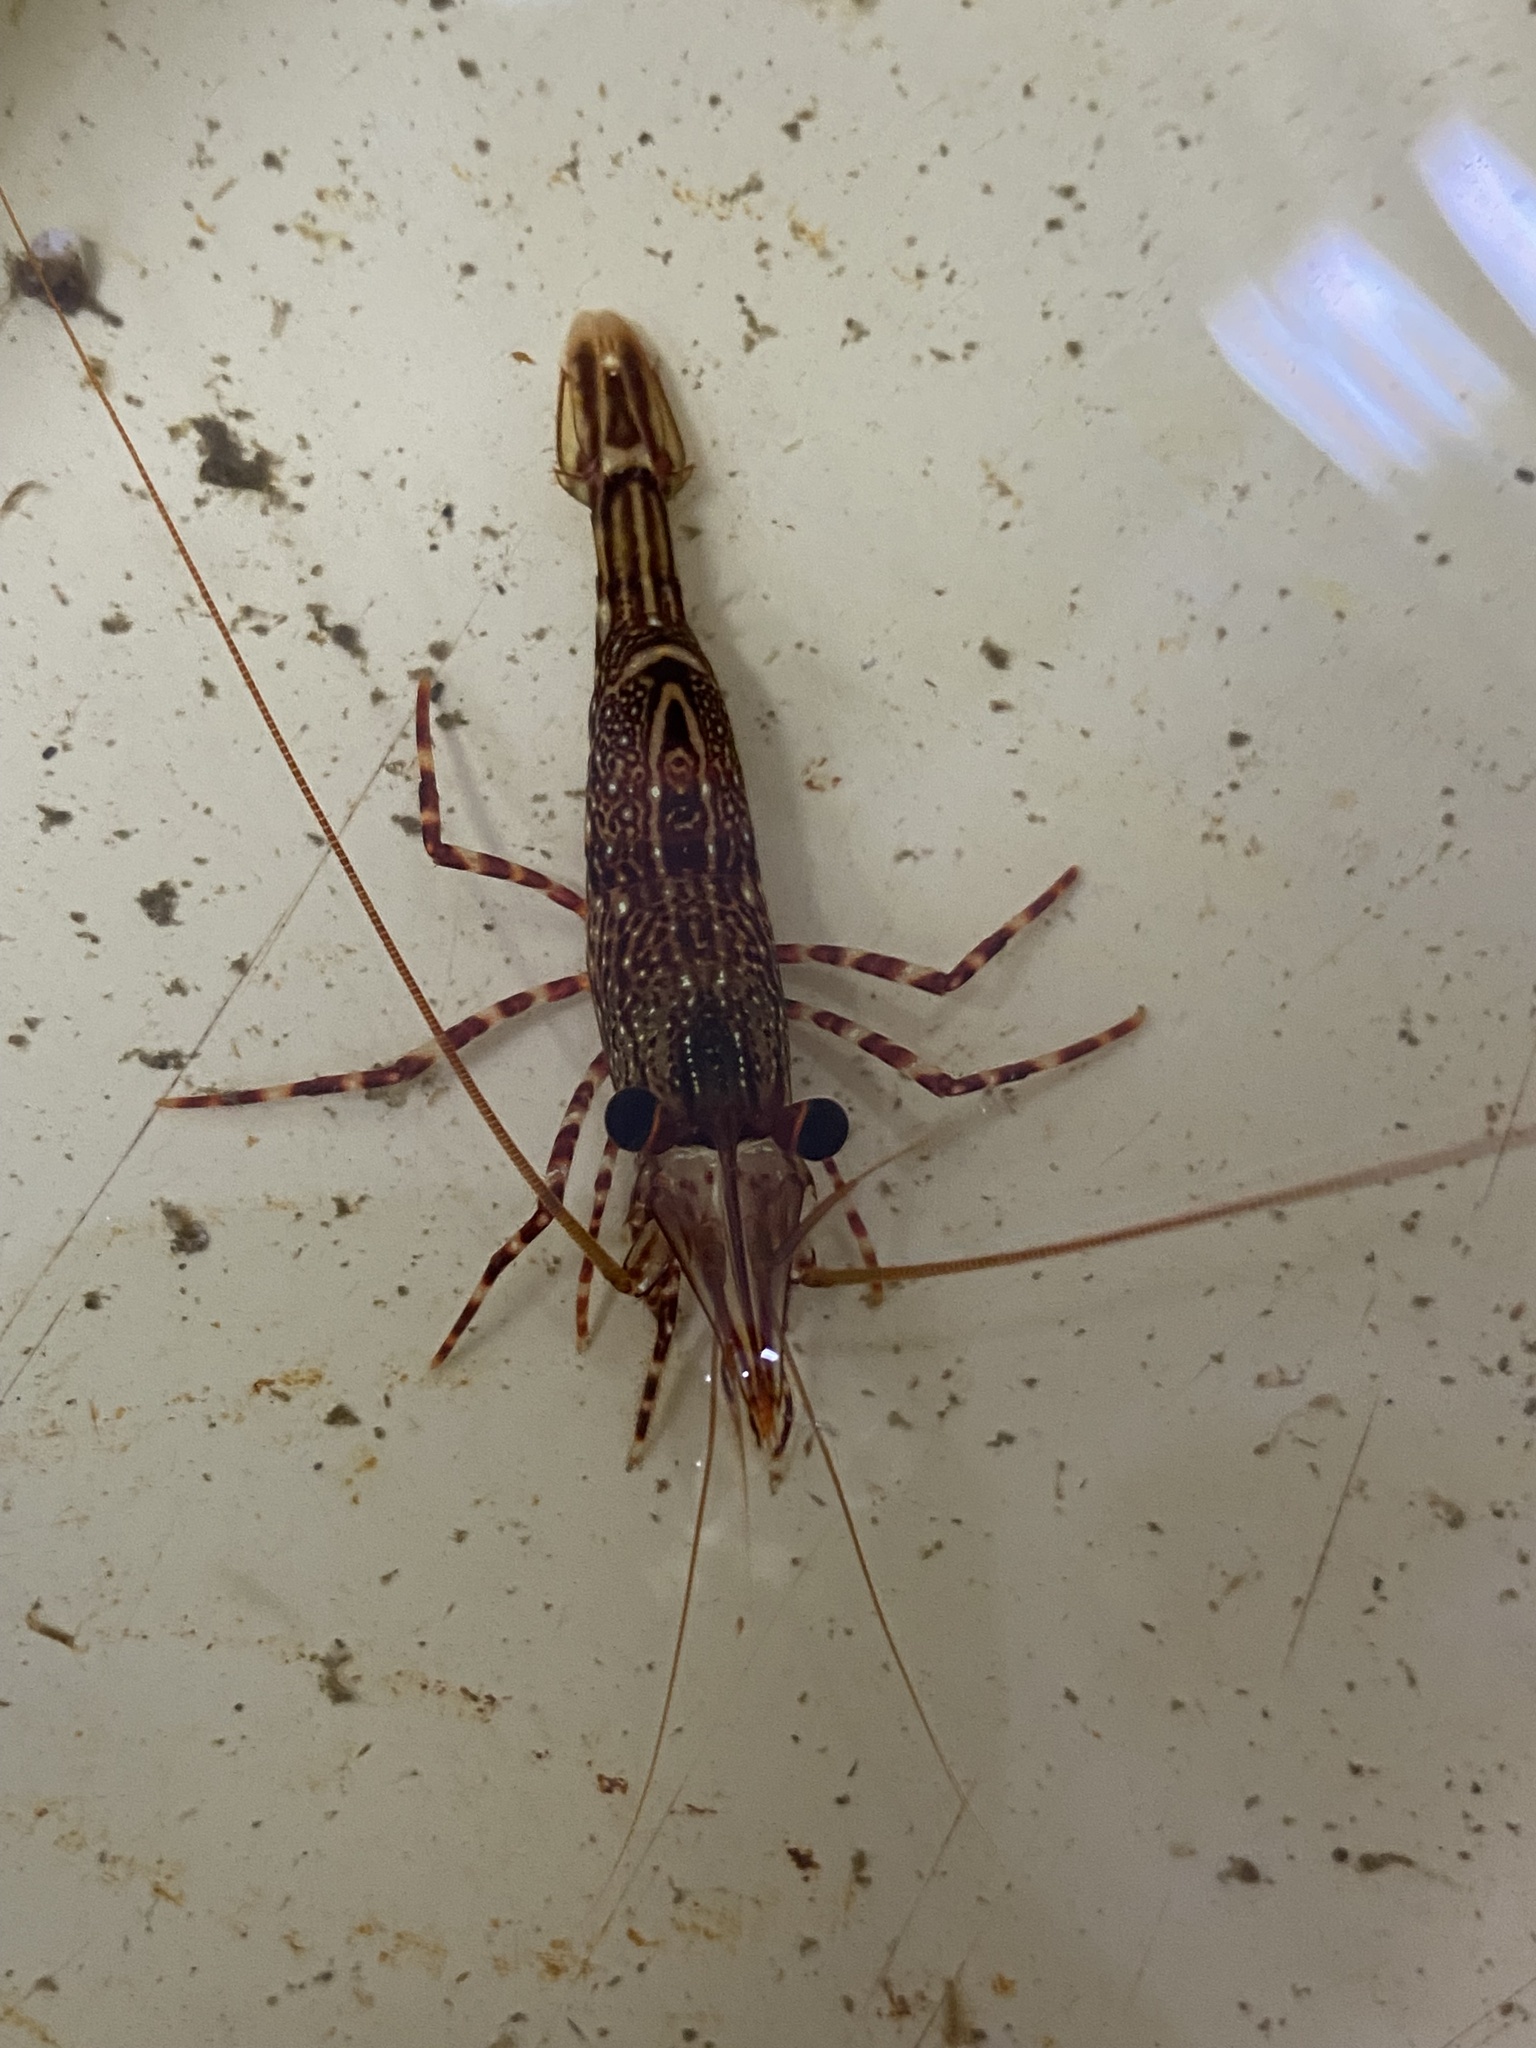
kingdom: Animalia
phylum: Arthropoda
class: Malacostraca
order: Decapoda
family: Rhynchocinetidae
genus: Rhynchocinetes
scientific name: Rhynchocinetes typus
